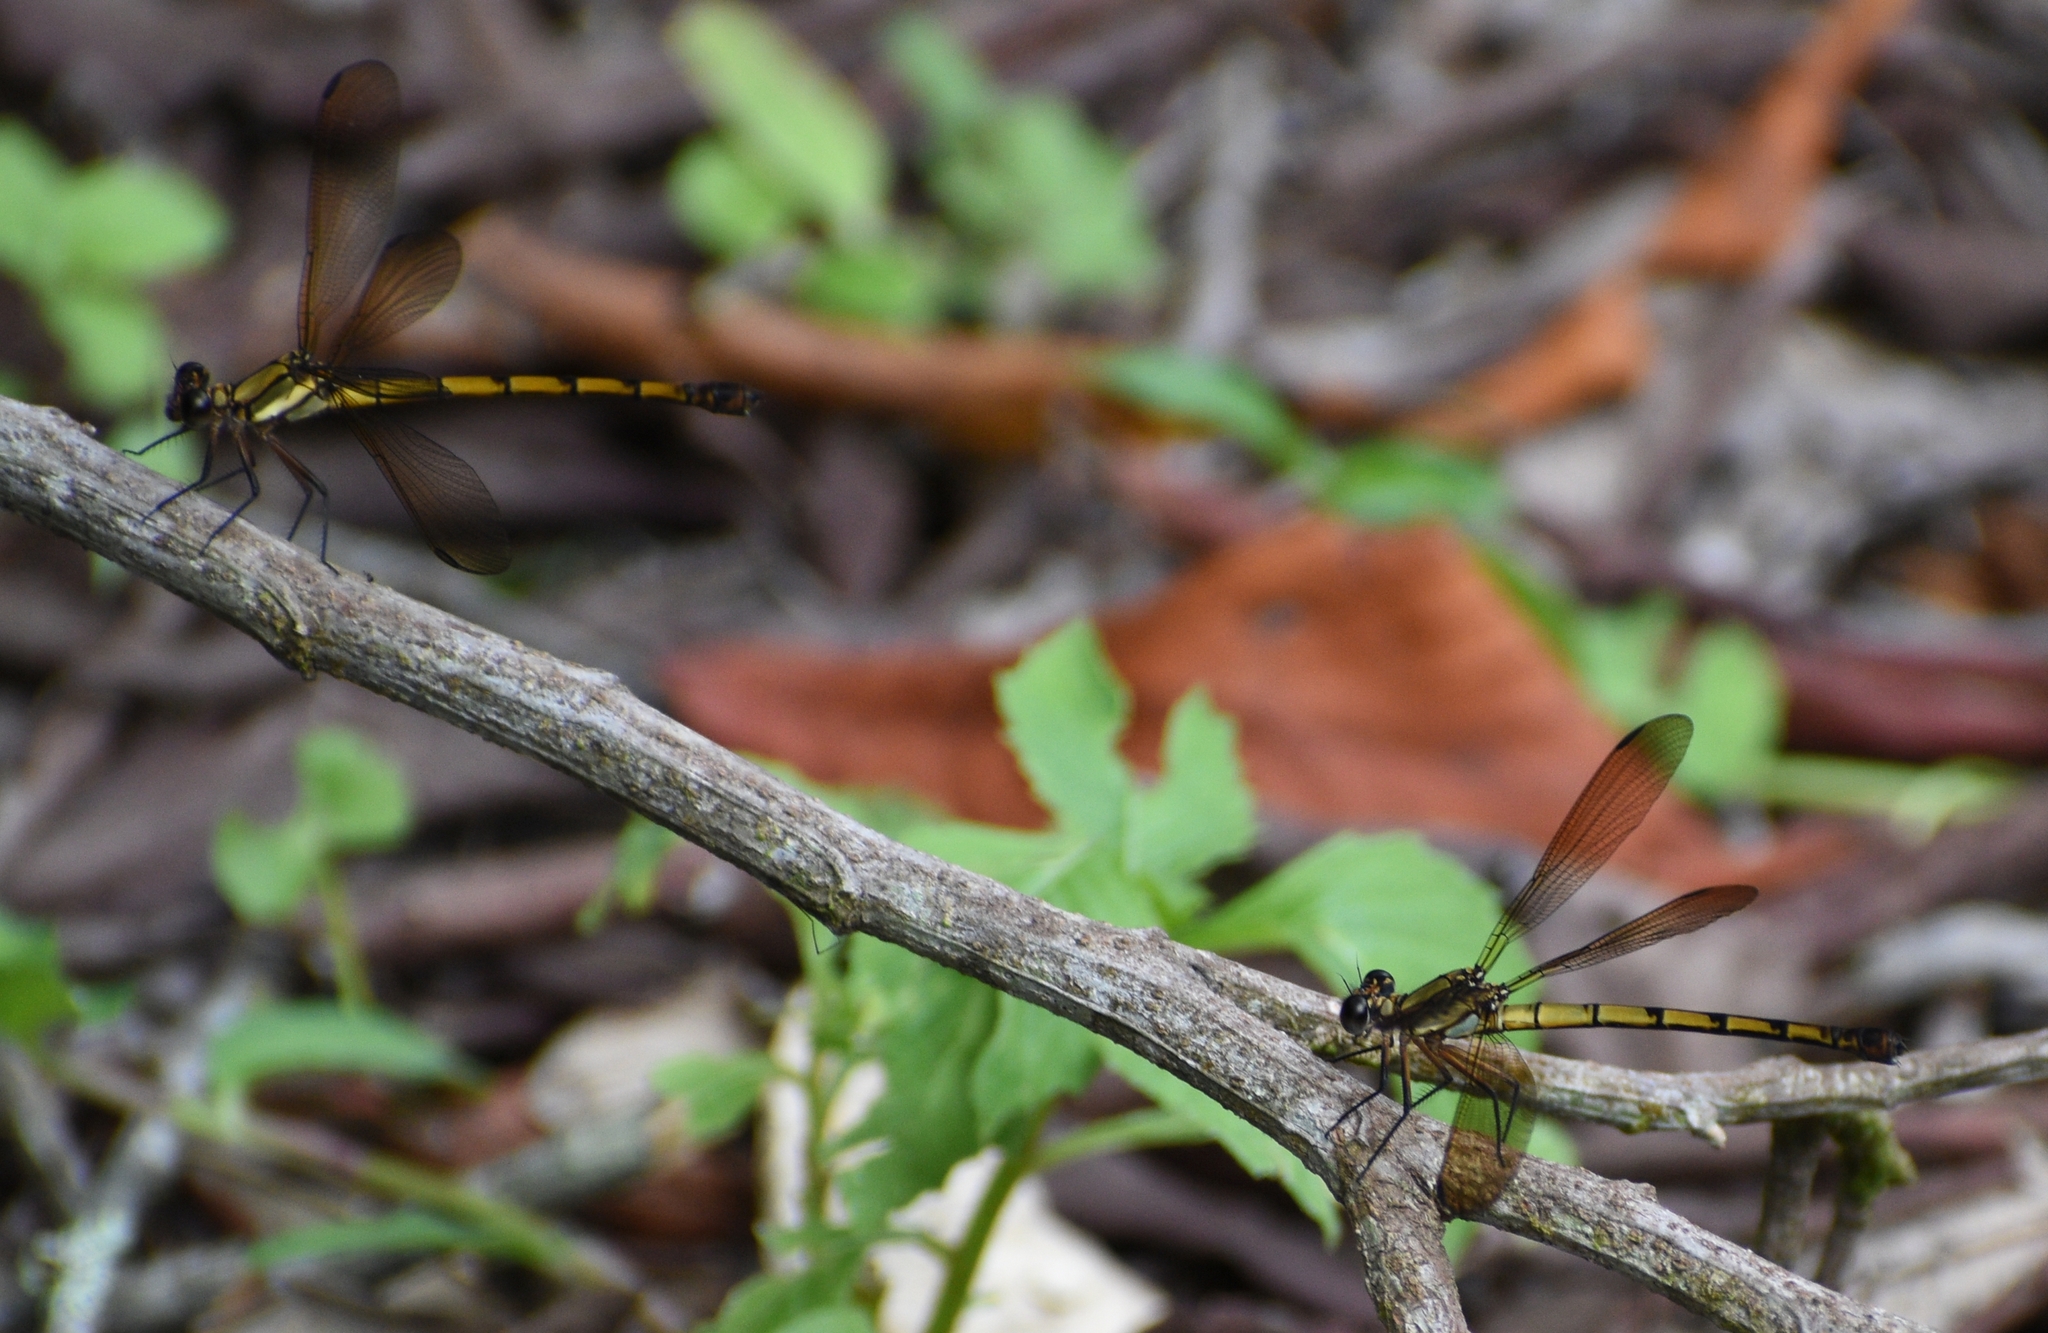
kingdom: Animalia
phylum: Arthropoda
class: Insecta
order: Odonata
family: Lestoideidae
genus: Diphlebia
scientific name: Diphlebia euphoeoides
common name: Tropical rockmaster
